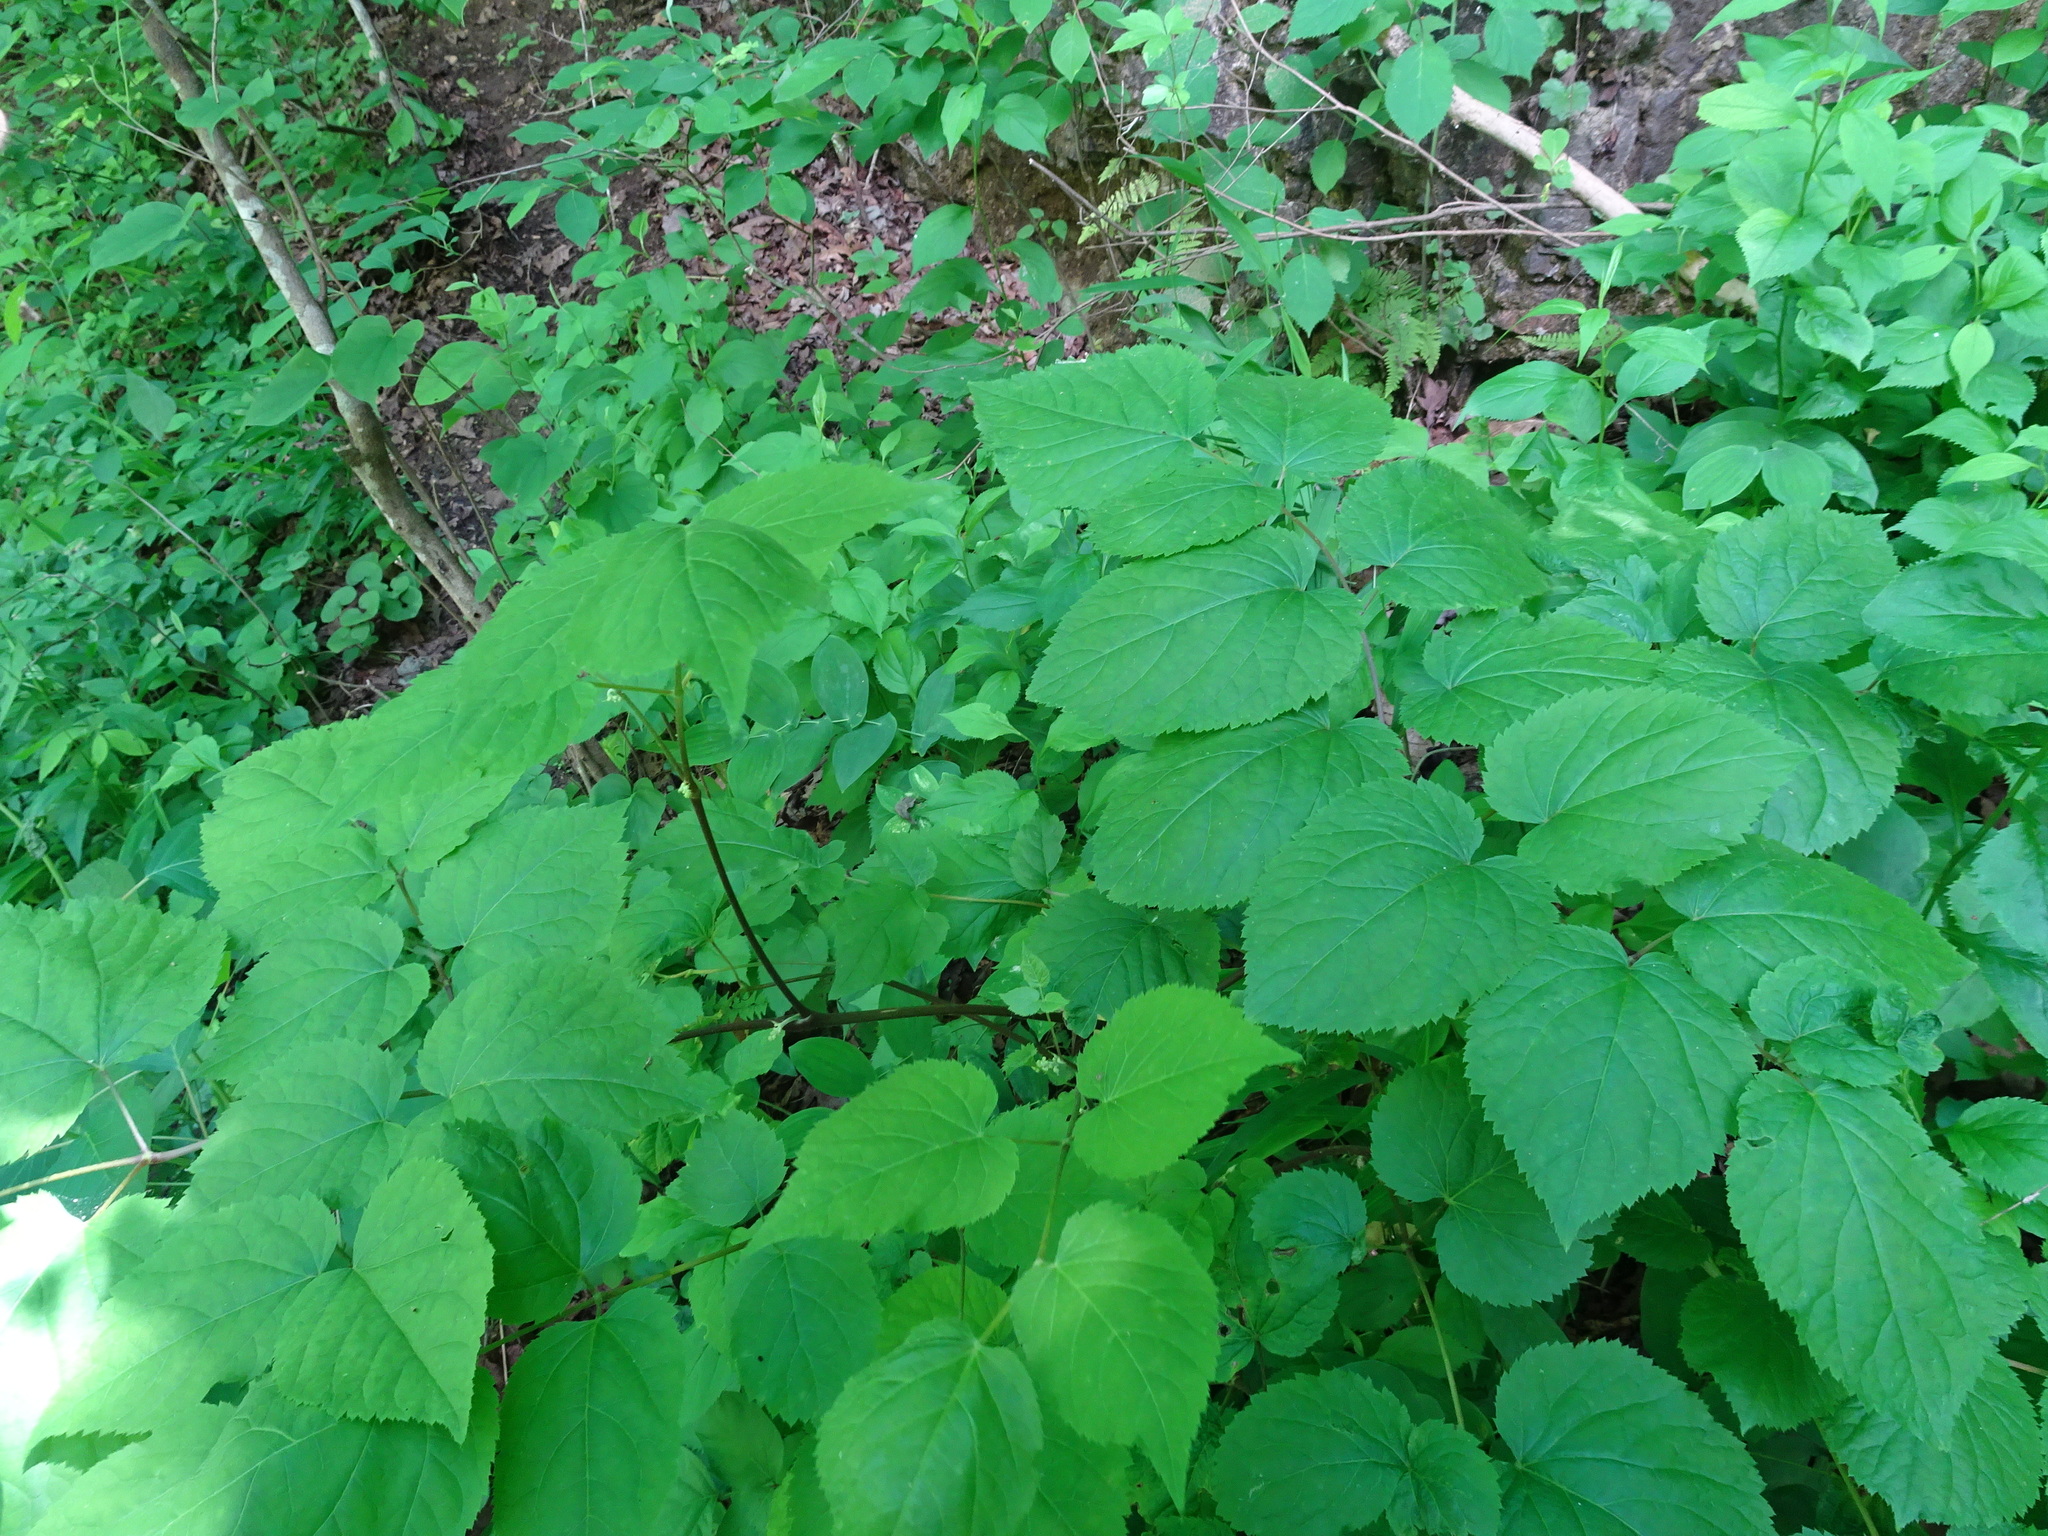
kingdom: Plantae
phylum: Tracheophyta
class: Magnoliopsida
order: Apiales
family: Araliaceae
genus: Aralia
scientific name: Aralia racemosa
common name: American-spikenard
